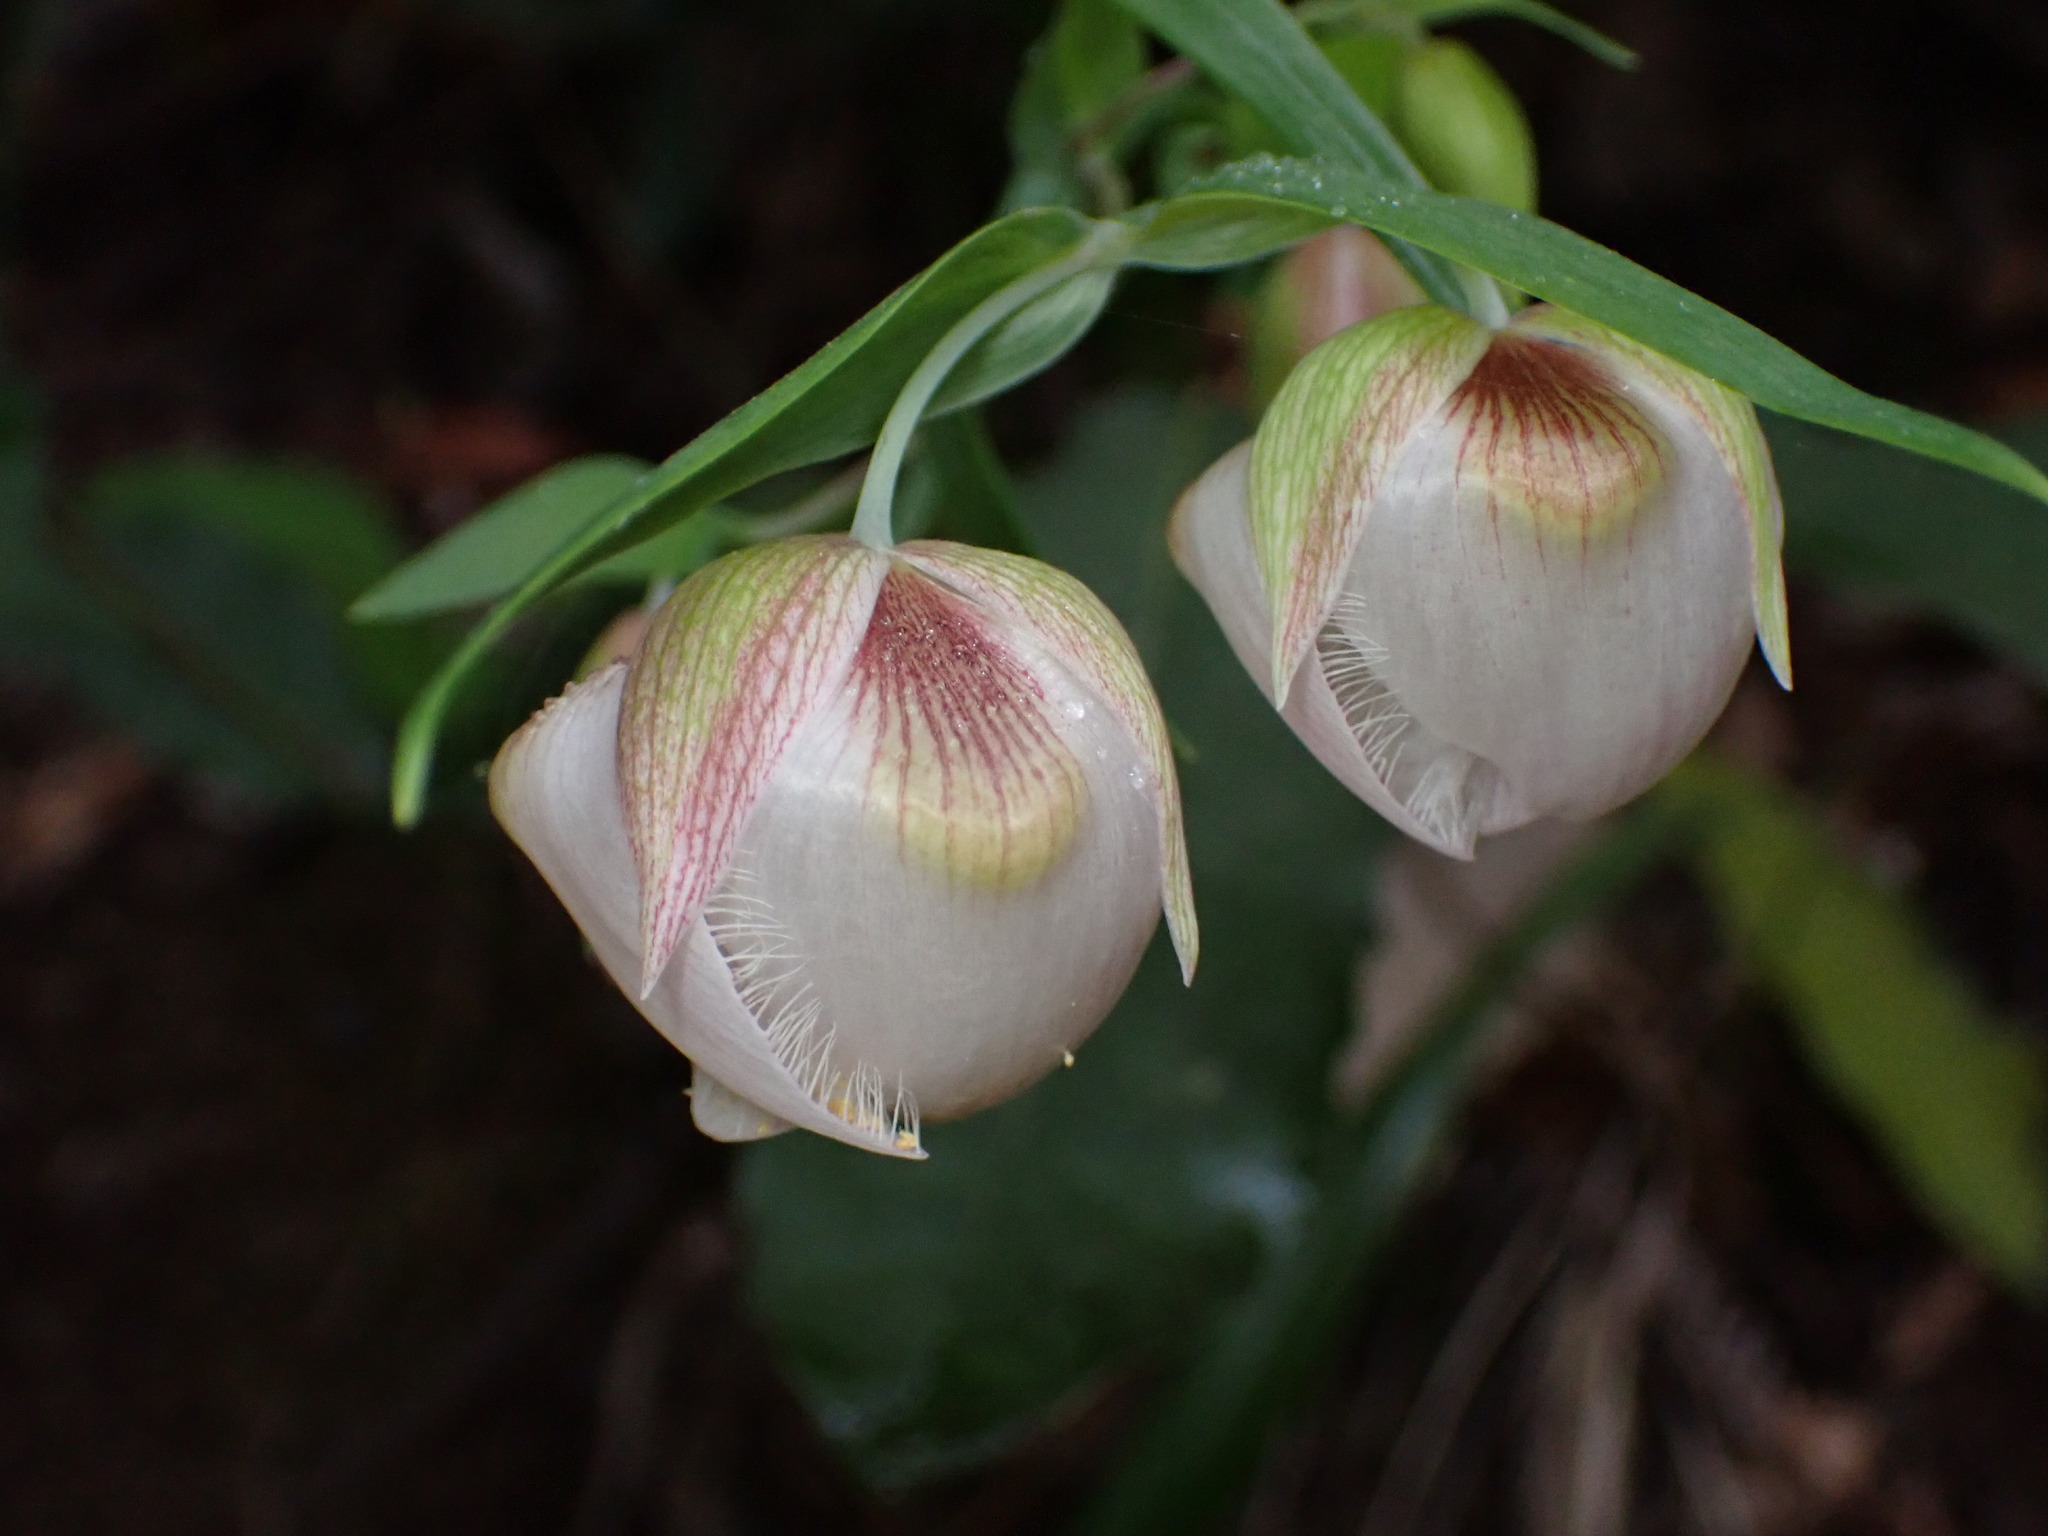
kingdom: Plantae
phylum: Tracheophyta
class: Liliopsida
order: Liliales
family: Liliaceae
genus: Calochortus
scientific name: Calochortus albus
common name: Fairy-lantern
